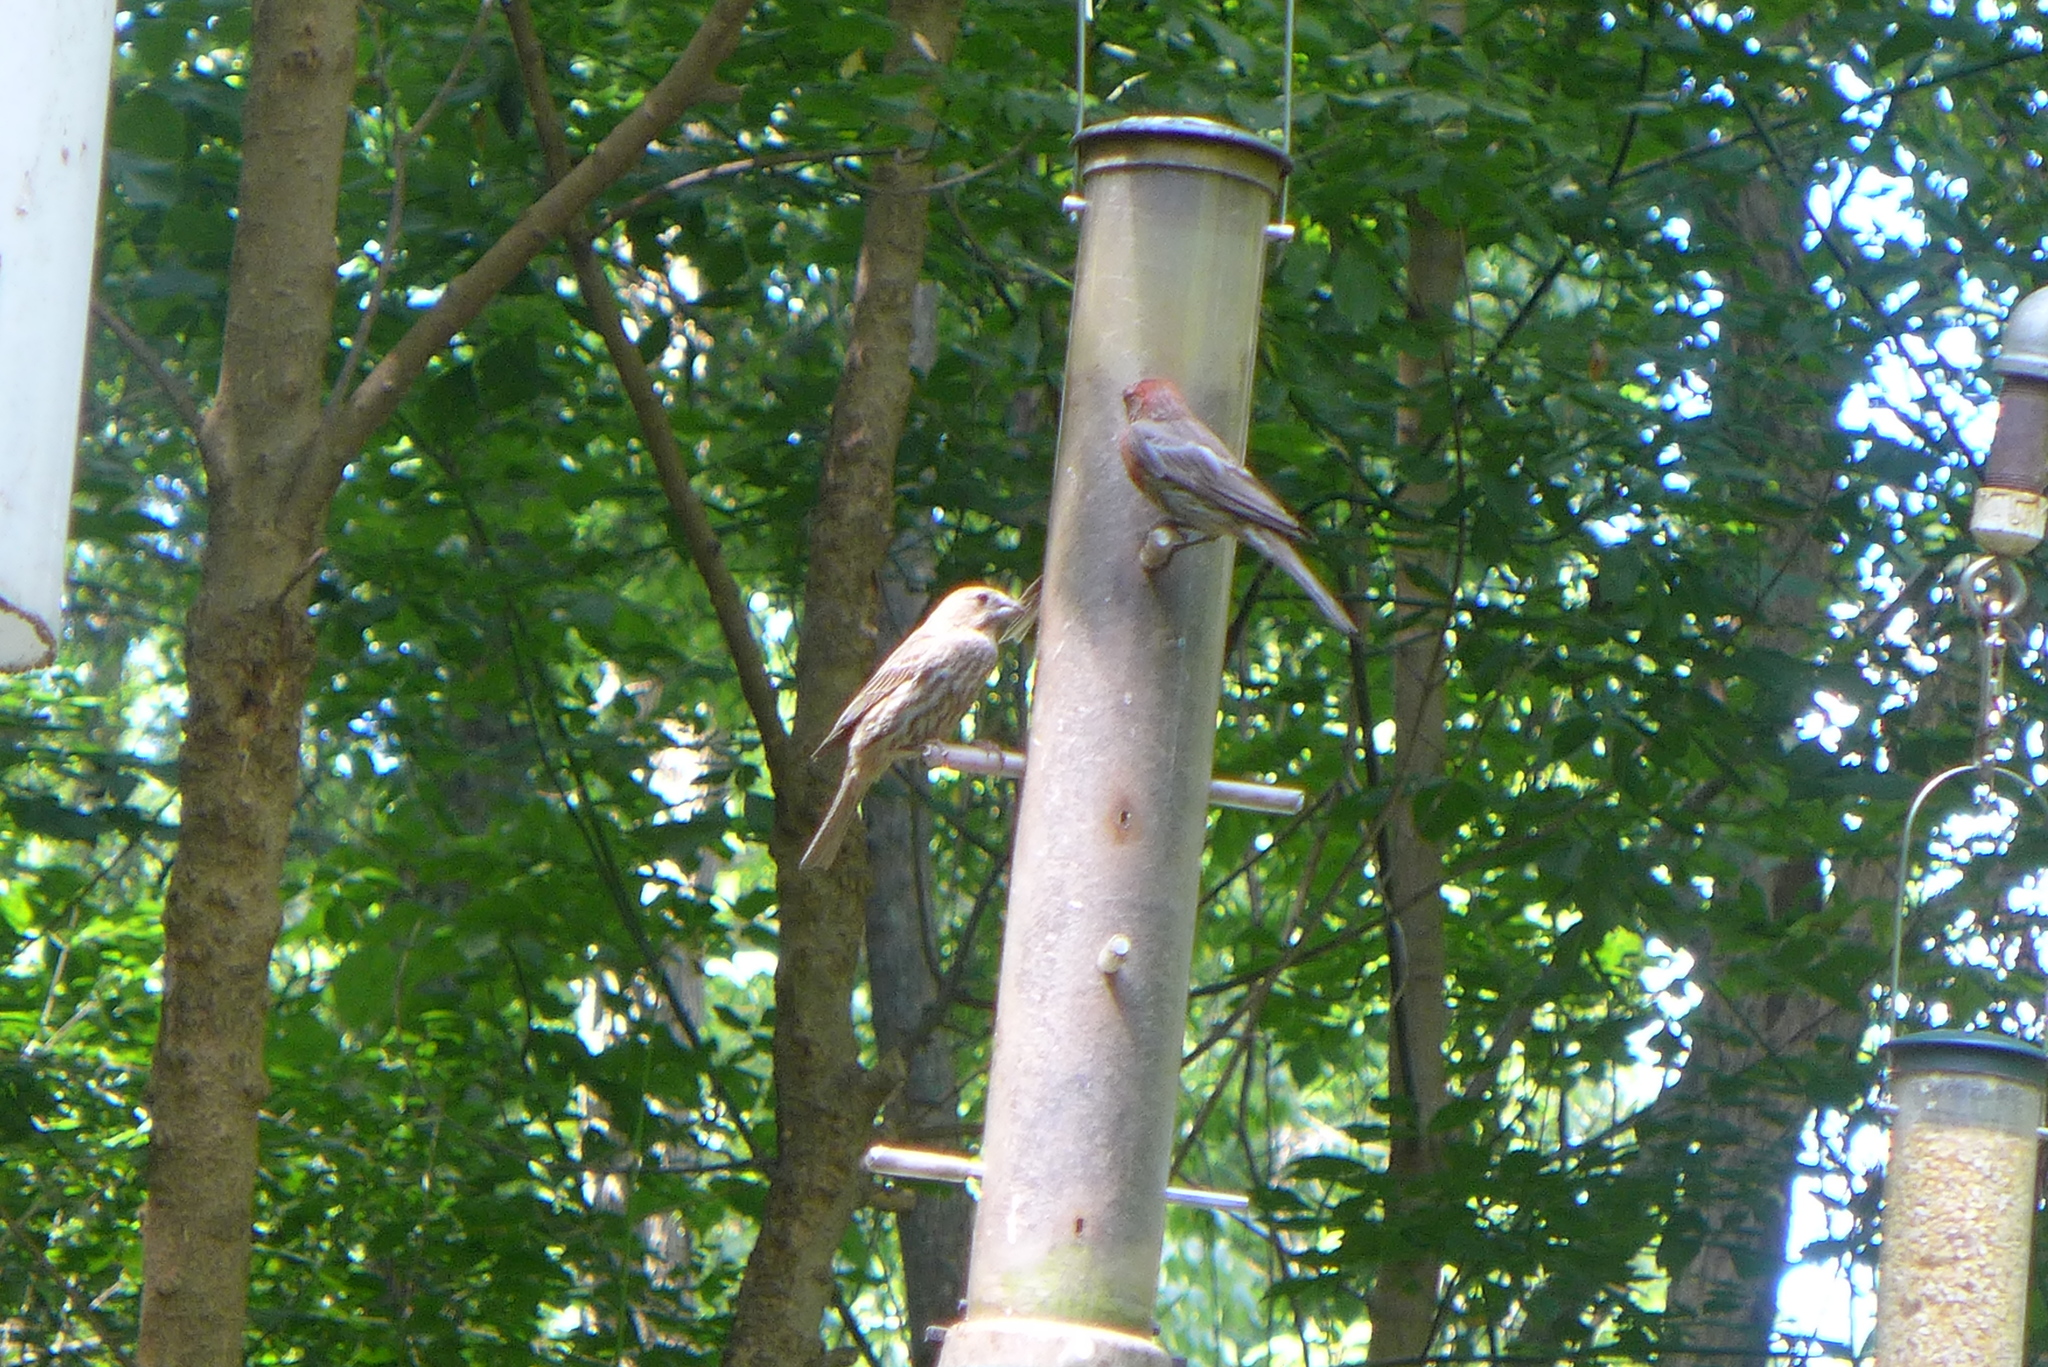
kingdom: Animalia
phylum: Chordata
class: Aves
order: Passeriformes
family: Fringillidae
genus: Haemorhous
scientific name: Haemorhous mexicanus
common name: House finch
